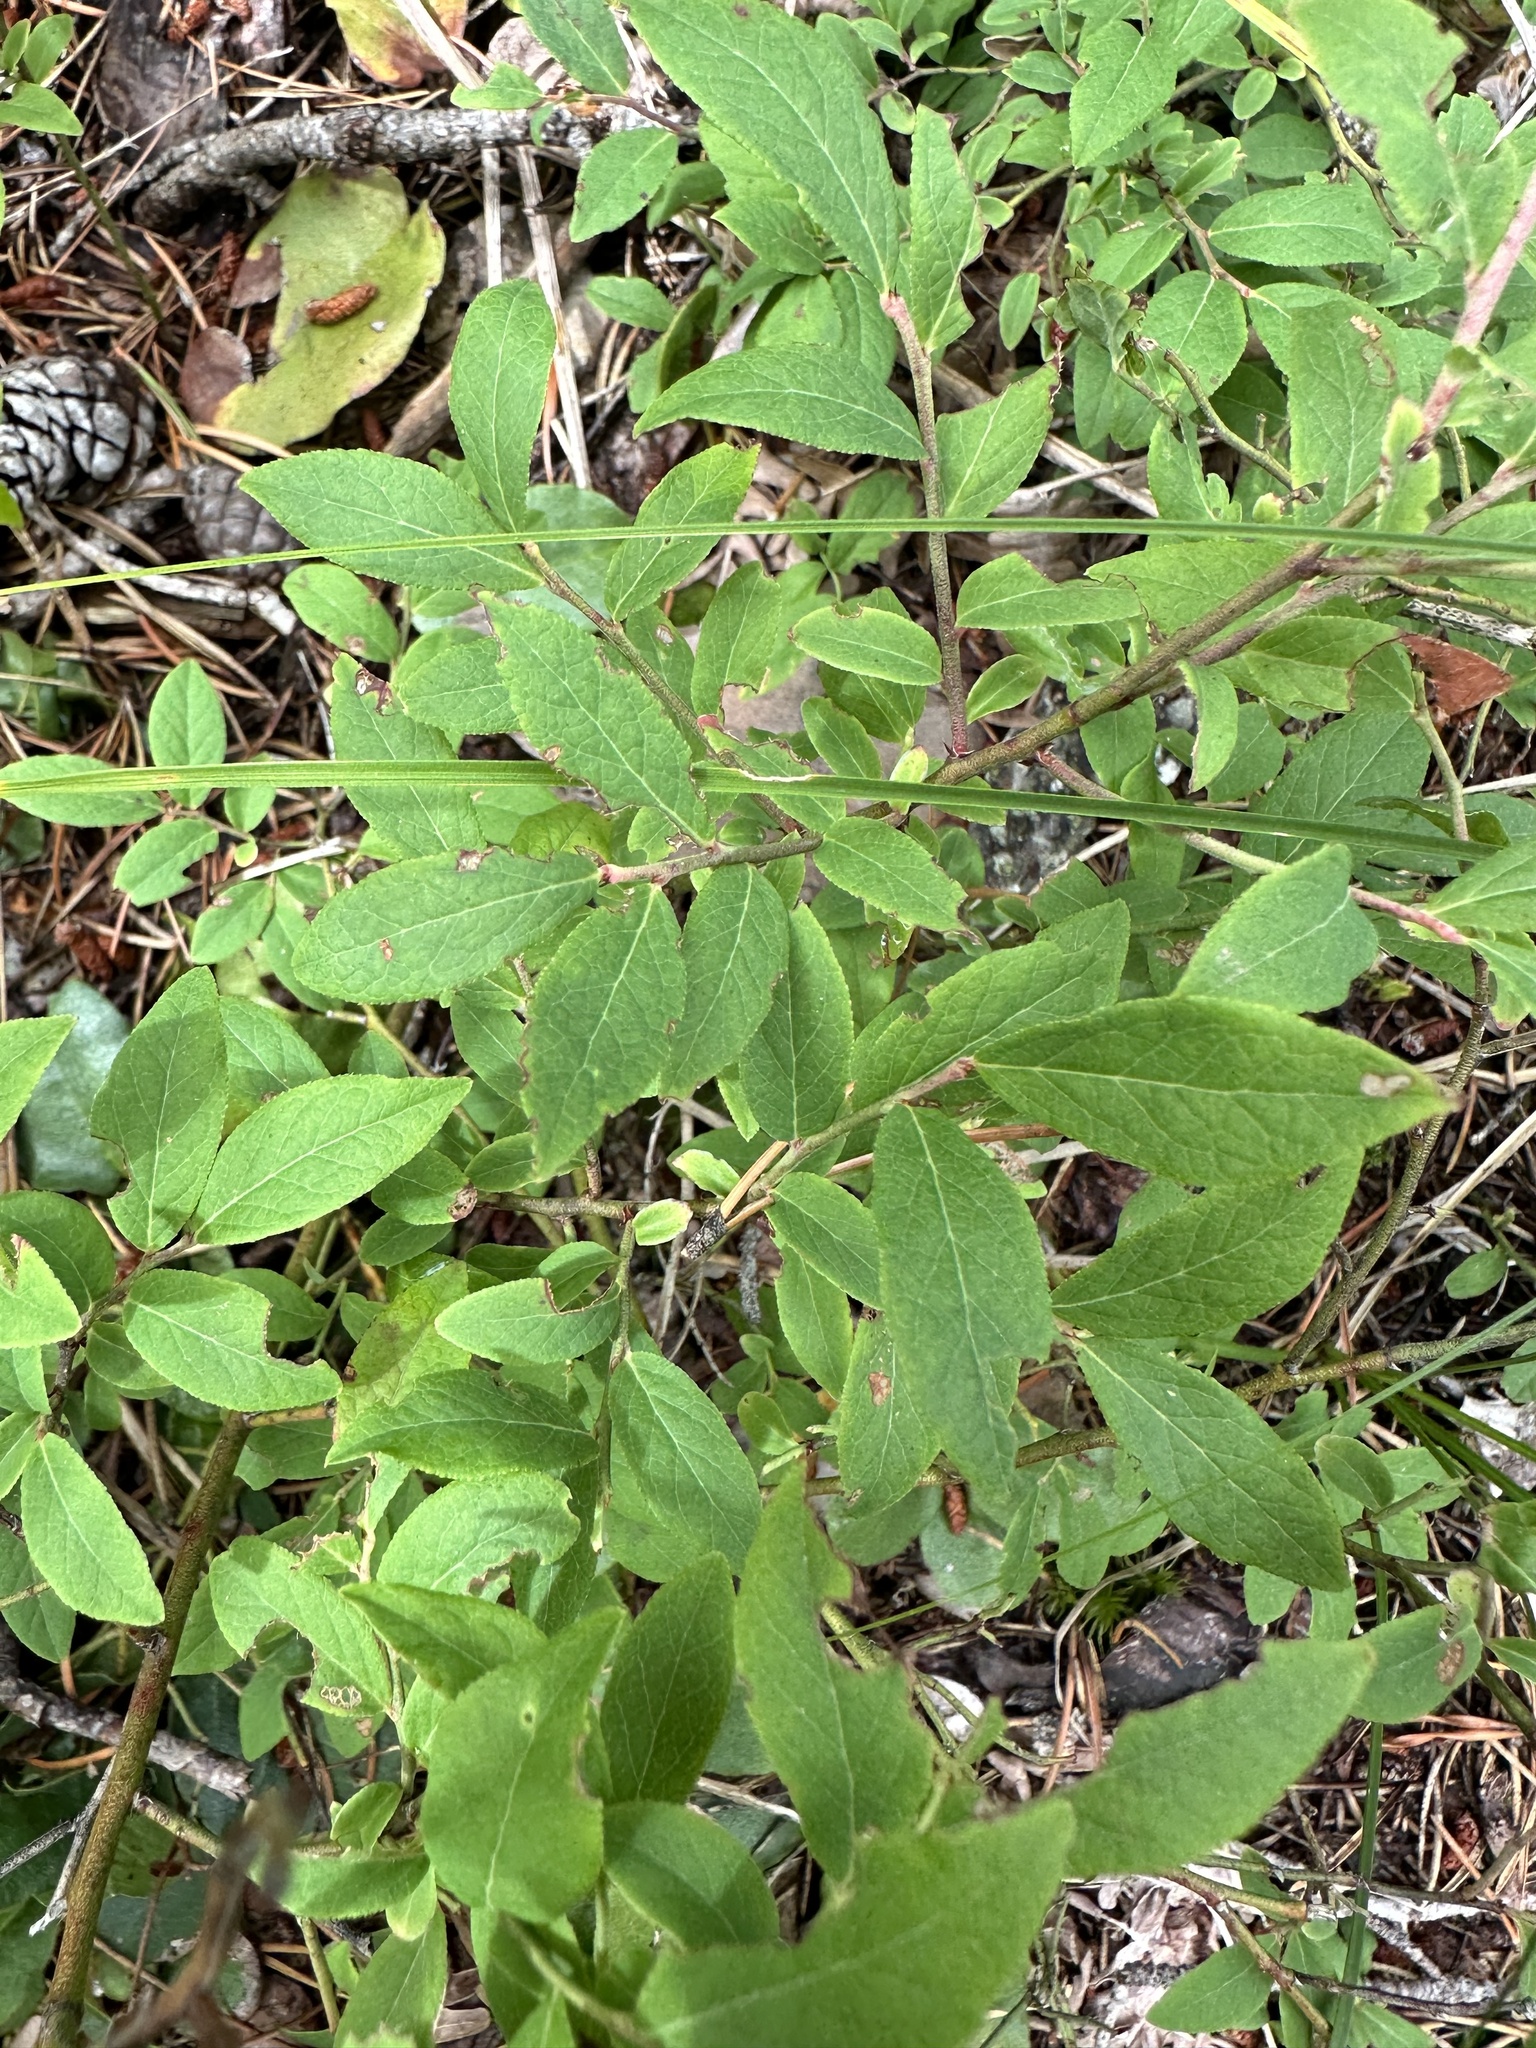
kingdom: Plantae
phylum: Tracheophyta
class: Magnoliopsida
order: Ericales
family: Ericaceae
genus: Vaccinium
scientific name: Vaccinium angustifolium
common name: Early lowbush blueberry
